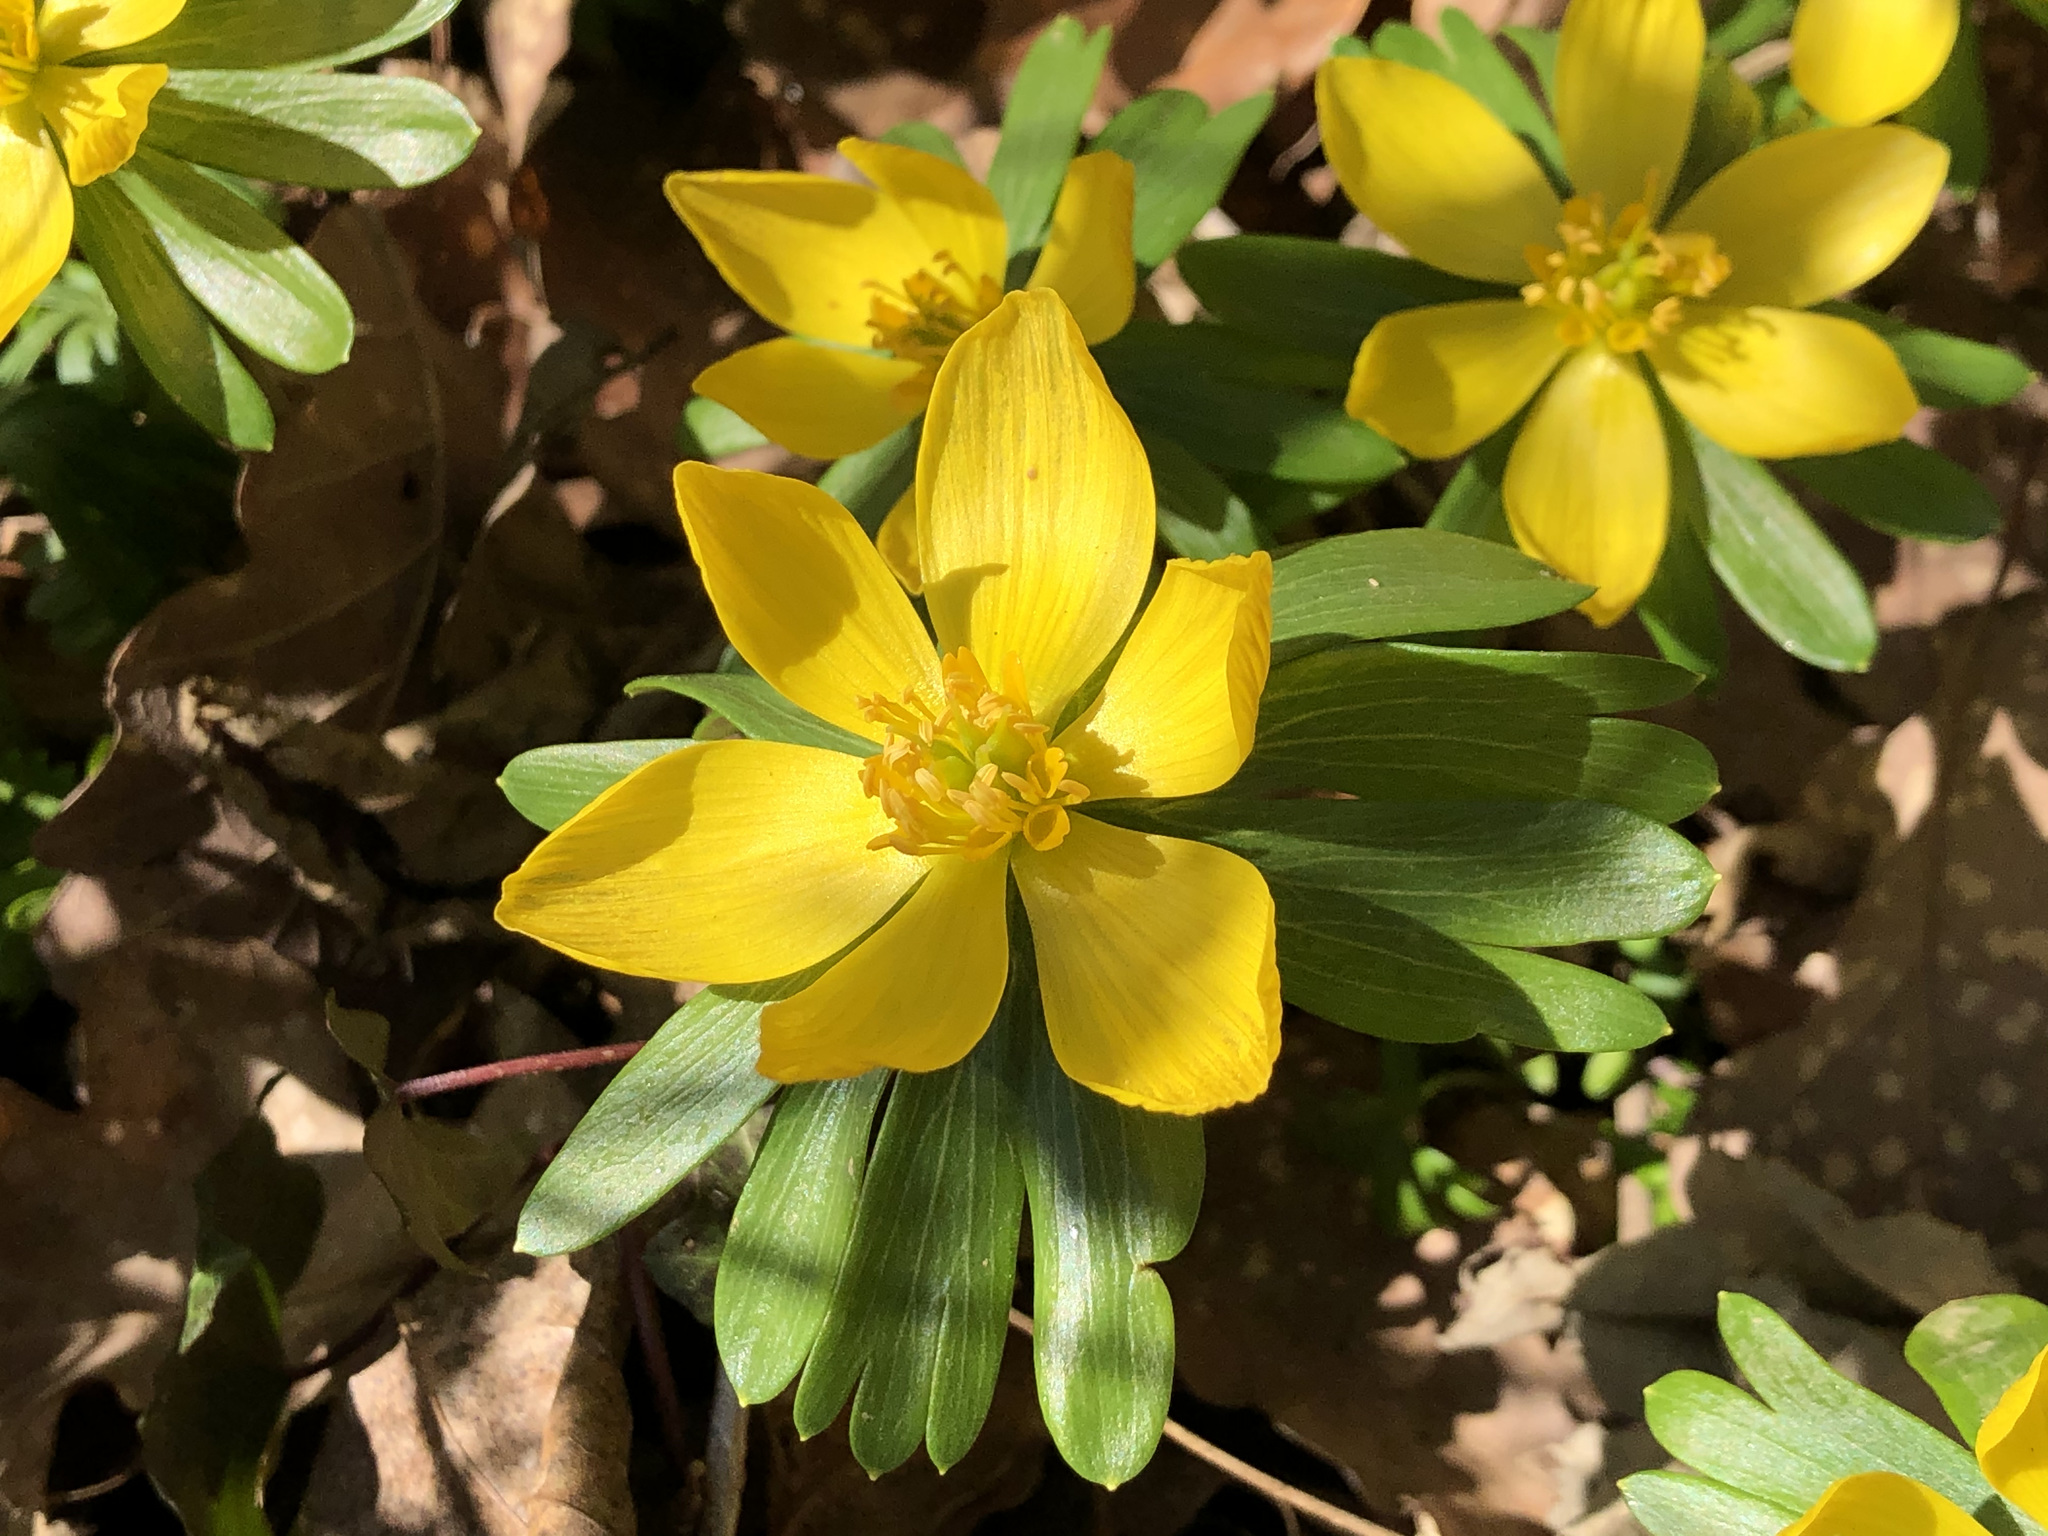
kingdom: Plantae
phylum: Tracheophyta
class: Magnoliopsida
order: Ranunculales
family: Ranunculaceae
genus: Eranthis
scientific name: Eranthis hyemalis
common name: Winter aconite
